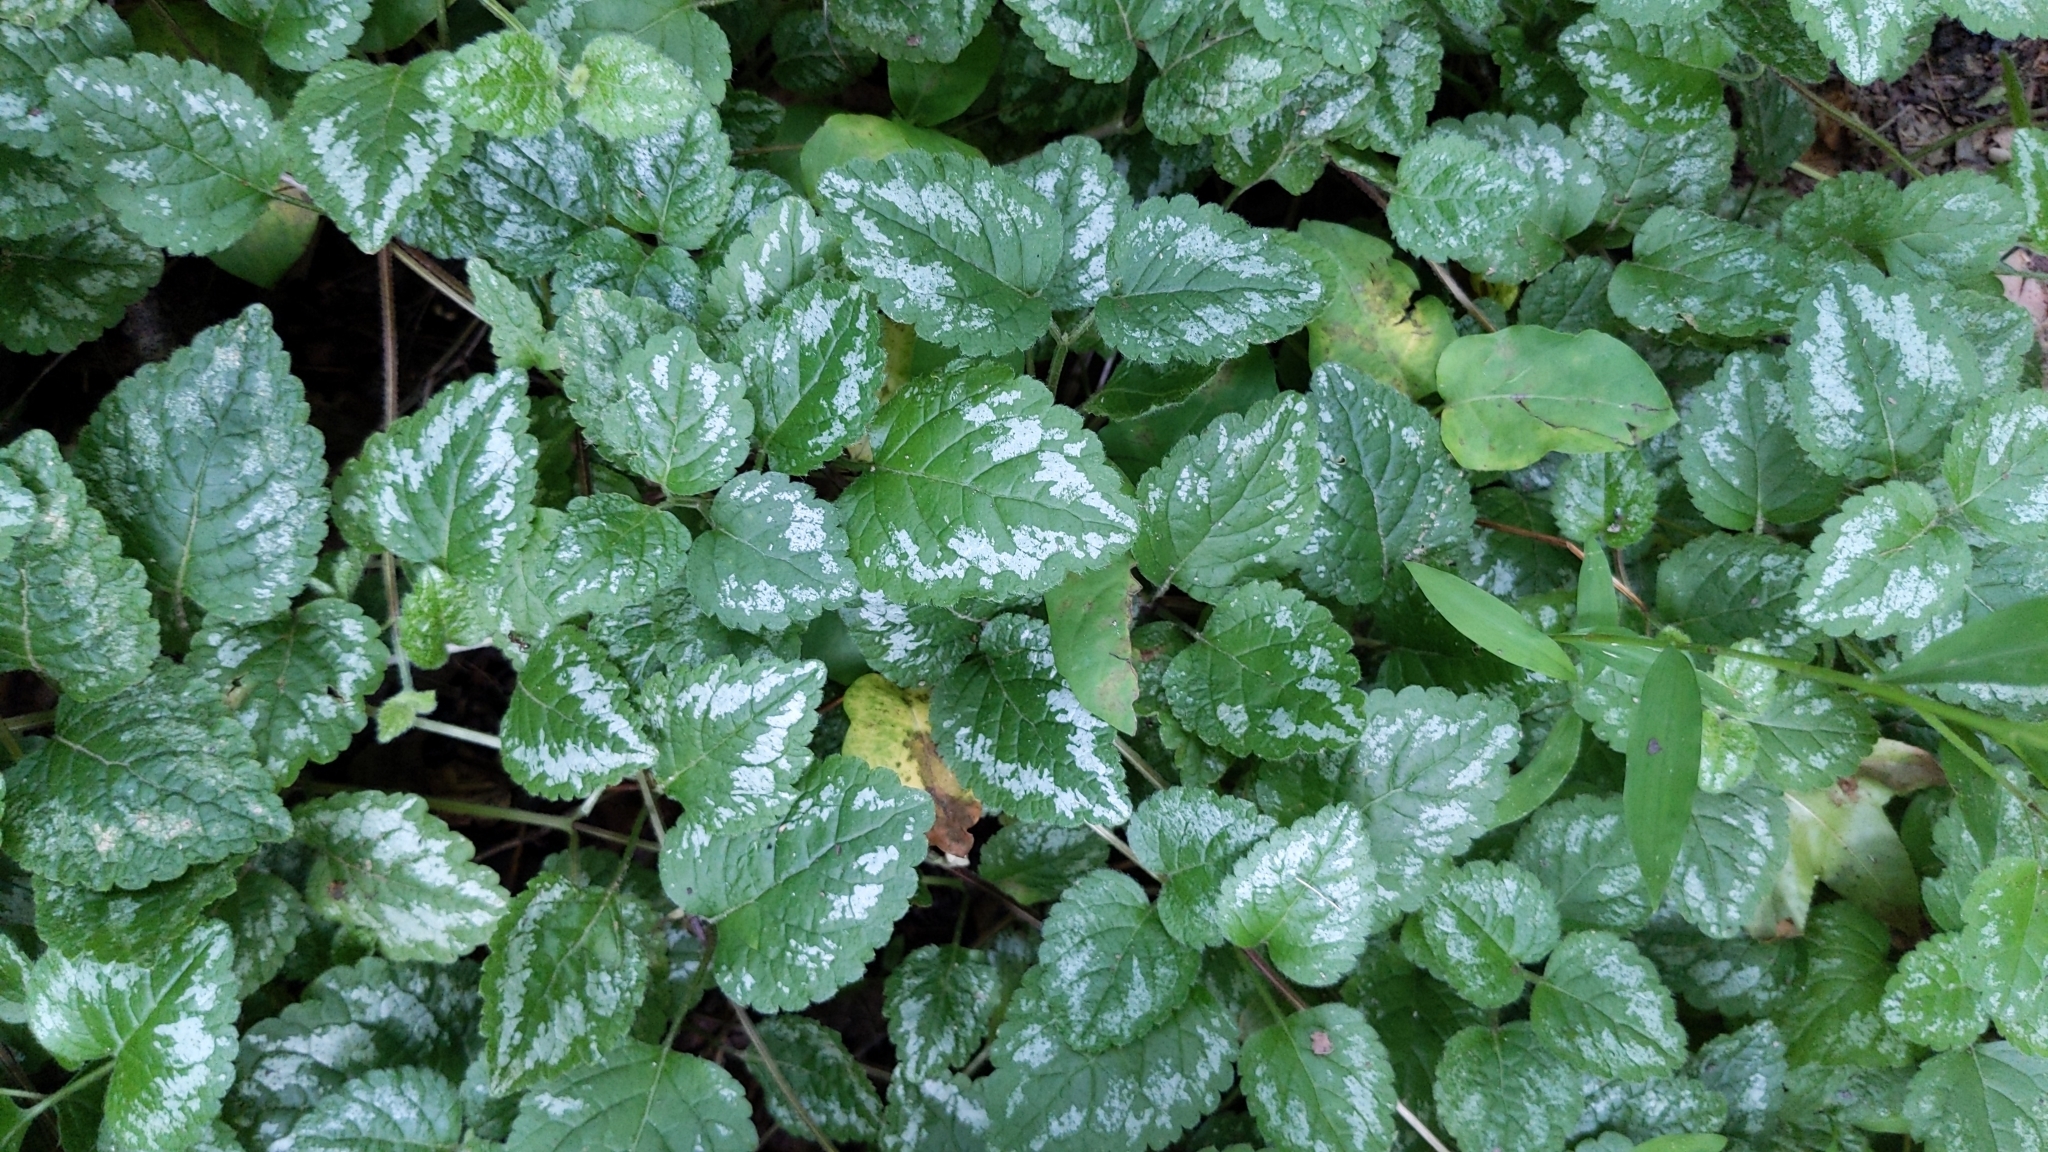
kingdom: Plantae
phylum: Tracheophyta
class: Magnoliopsida
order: Lamiales
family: Lamiaceae
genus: Lamium
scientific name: Lamium galeobdolon
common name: Yellow archangel
